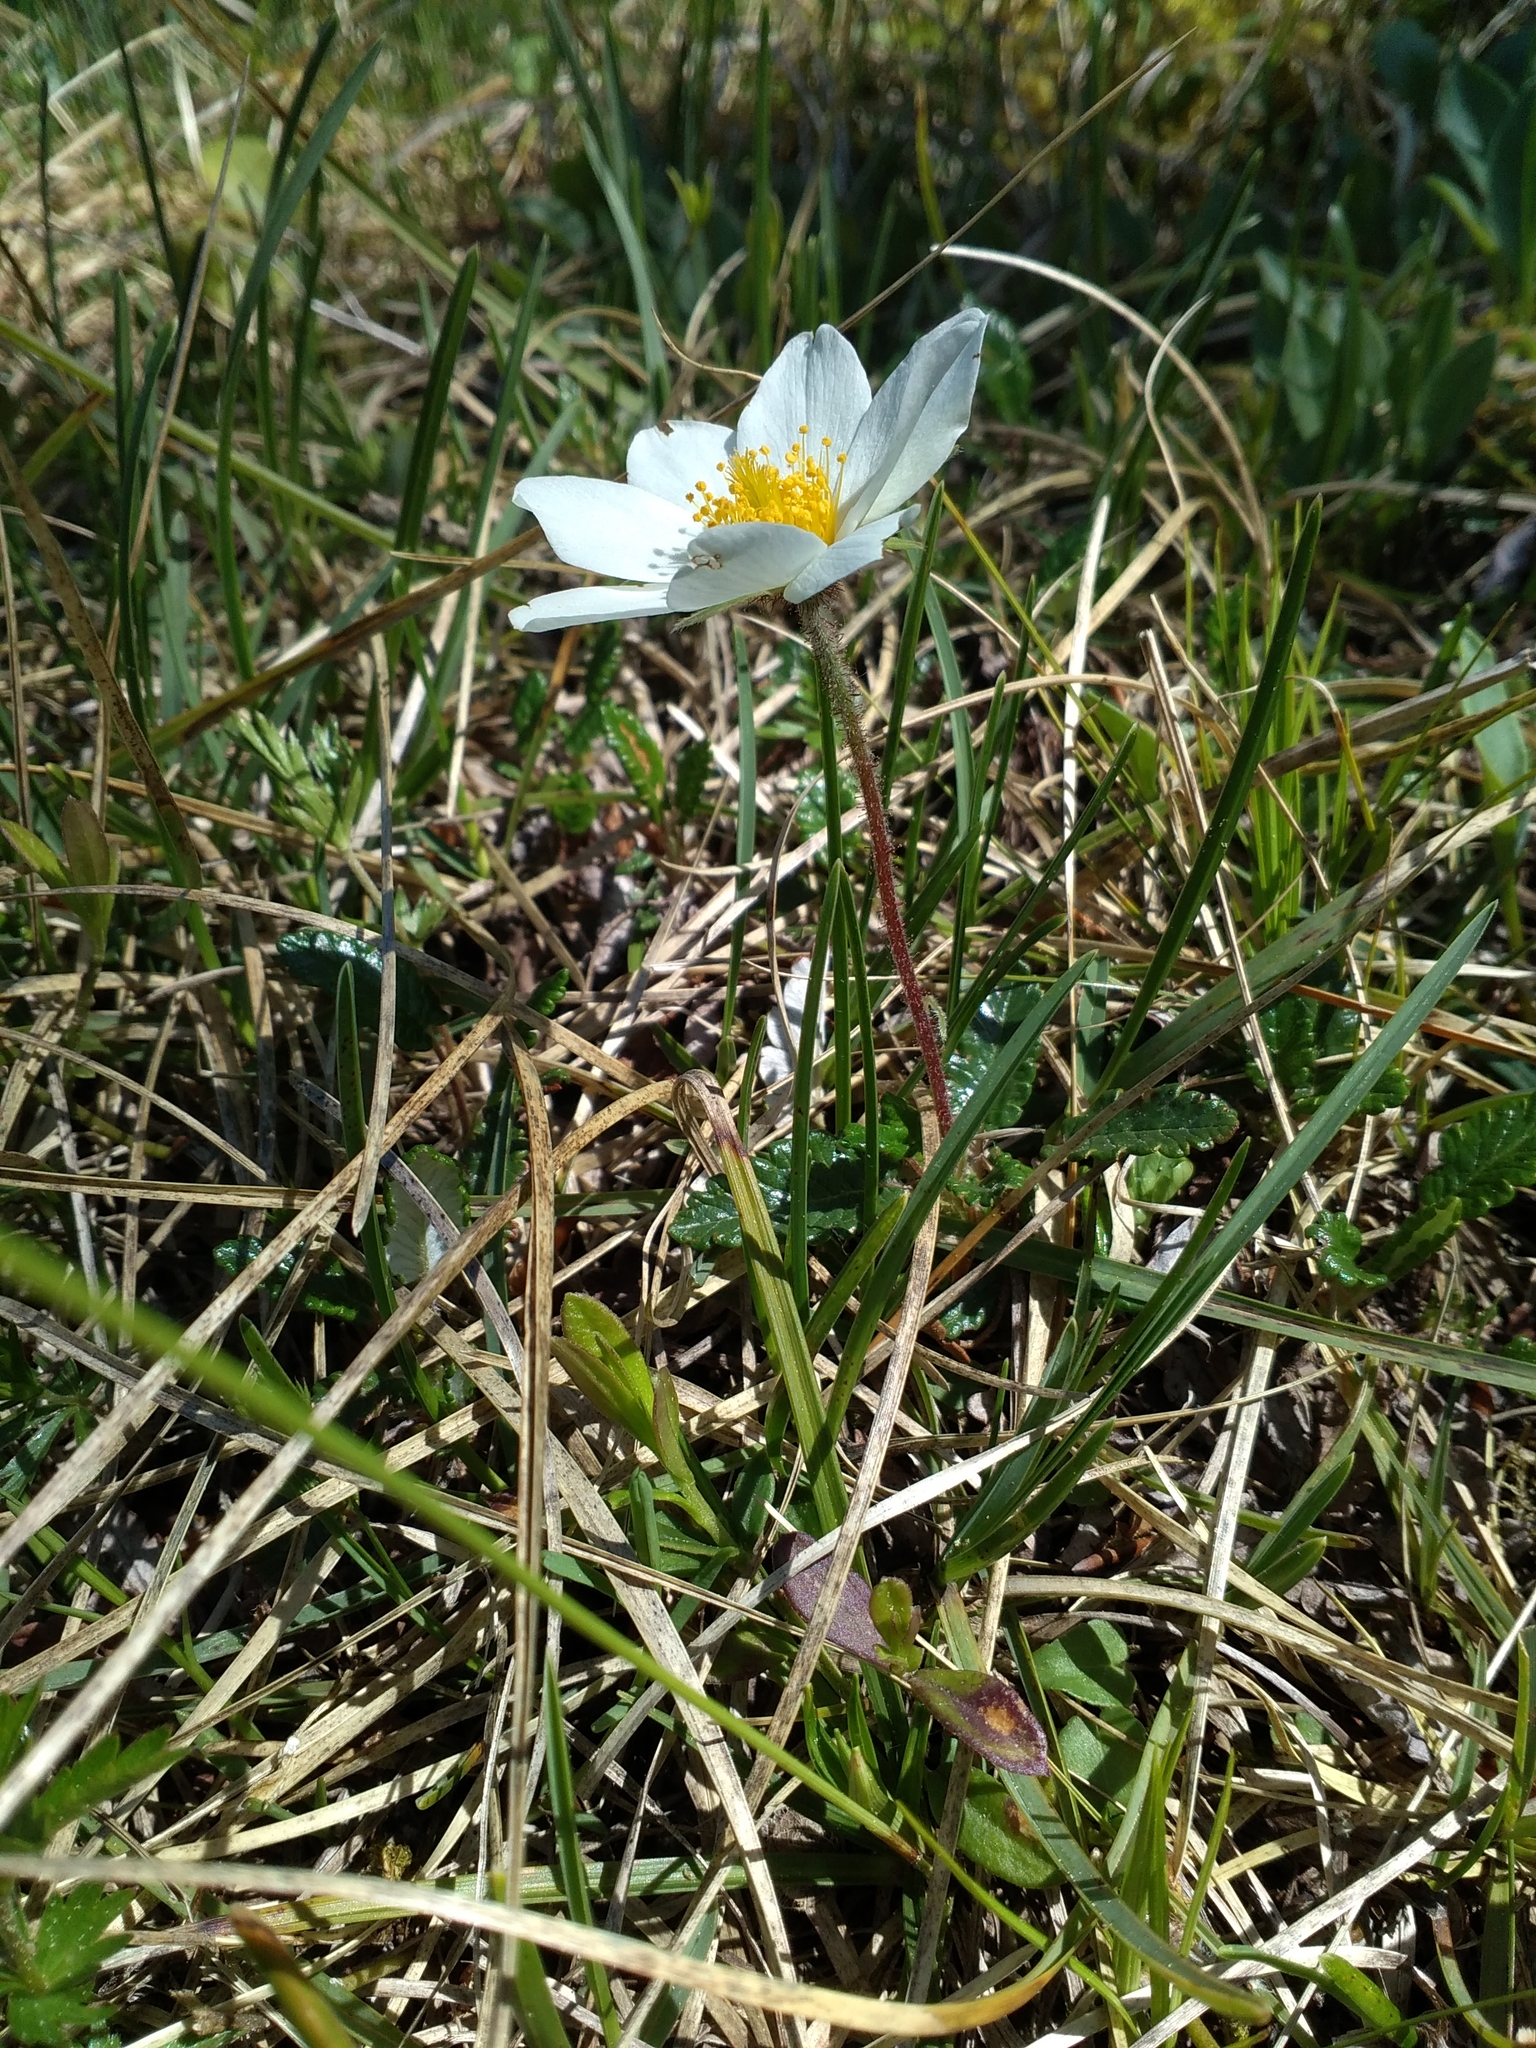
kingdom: Plantae
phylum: Tracheophyta
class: Magnoliopsida
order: Rosales
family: Rosaceae
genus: Dryas
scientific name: Dryas octopetala
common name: Eight-petal mountain-avens
